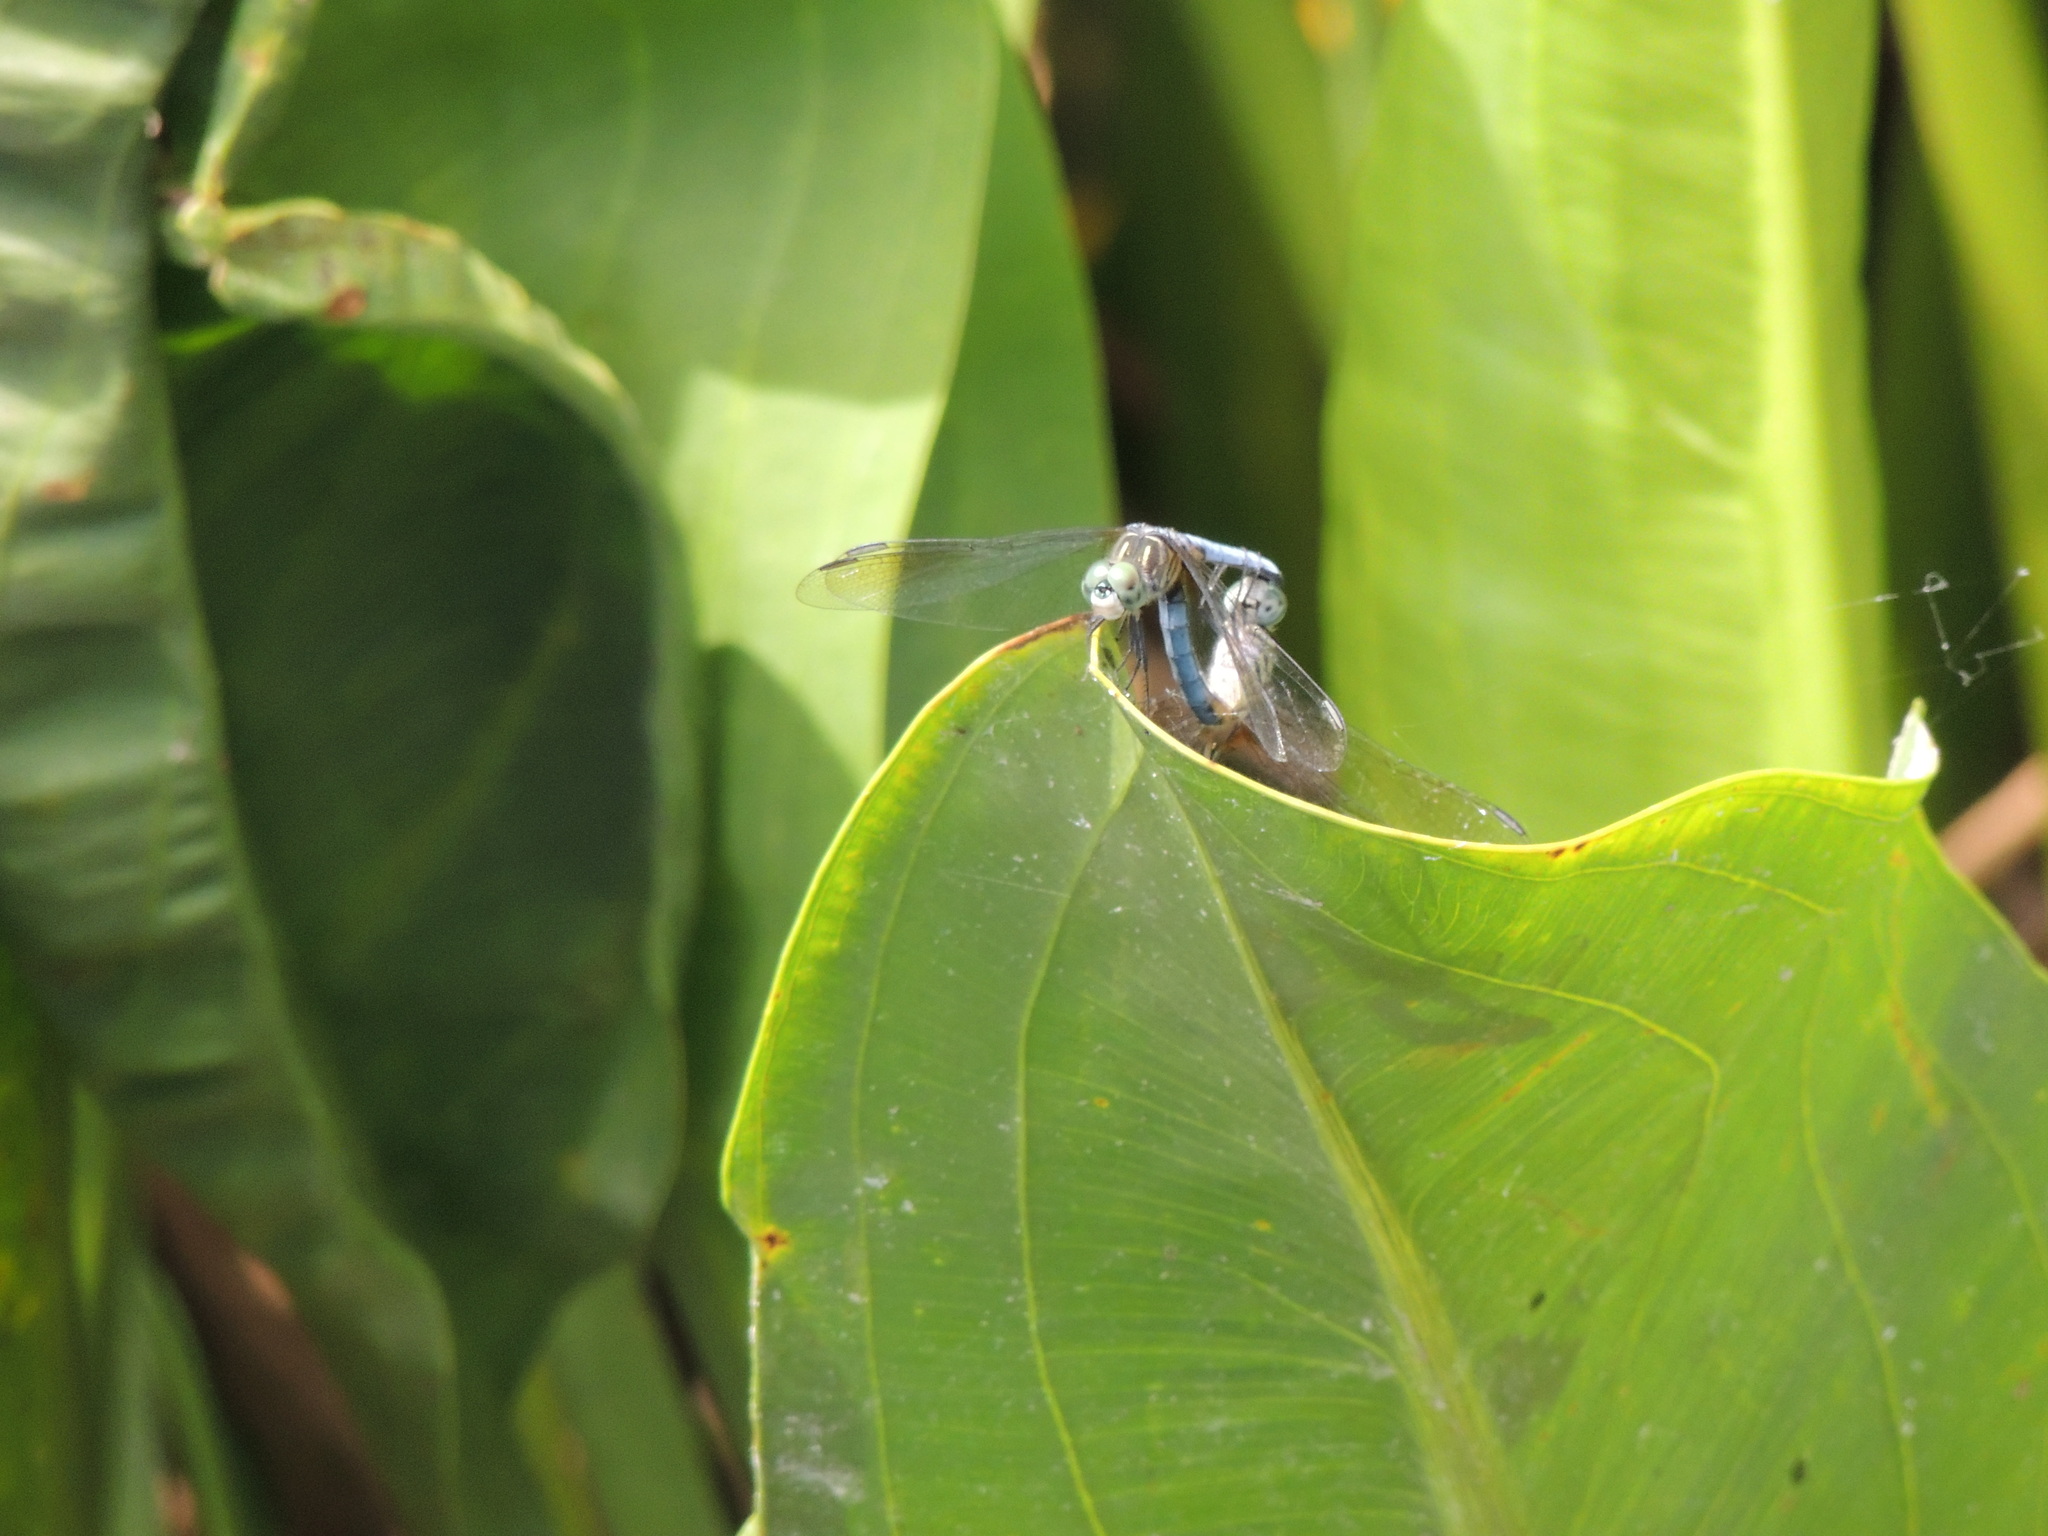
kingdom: Animalia
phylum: Arthropoda
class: Insecta
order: Odonata
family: Libellulidae
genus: Pachydiplax
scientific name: Pachydiplax longipennis
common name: Blue dasher
